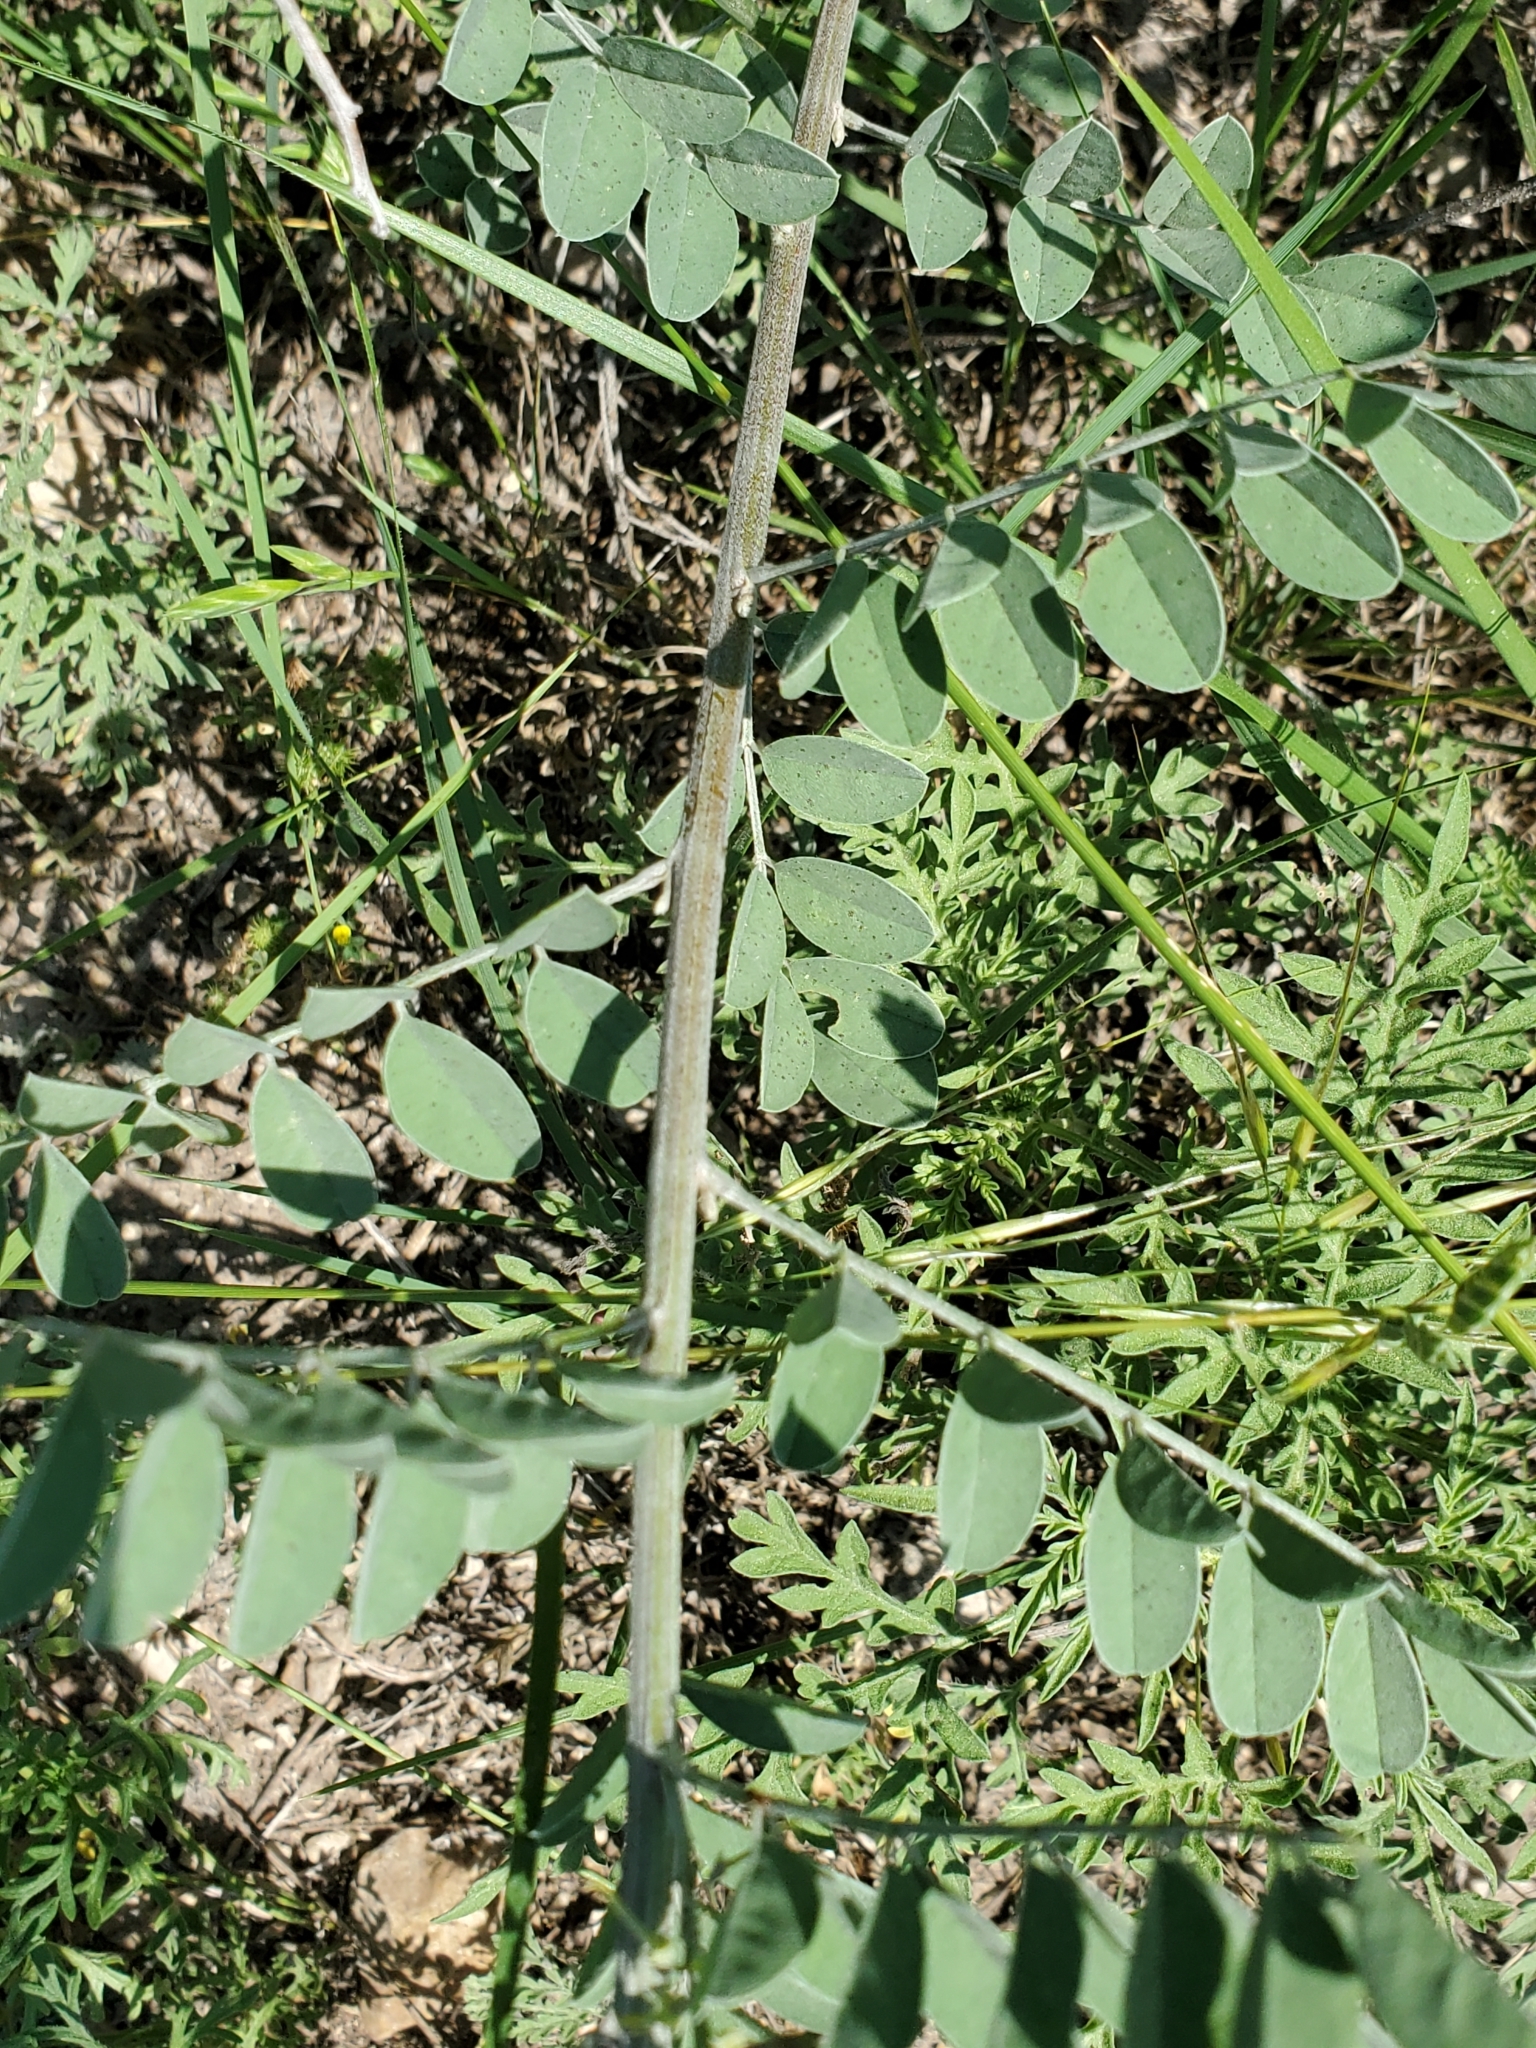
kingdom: Plantae
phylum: Tracheophyta
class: Magnoliopsida
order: Fabales
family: Fabaceae
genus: Indigofera
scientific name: Indigofera lindheimeriana
